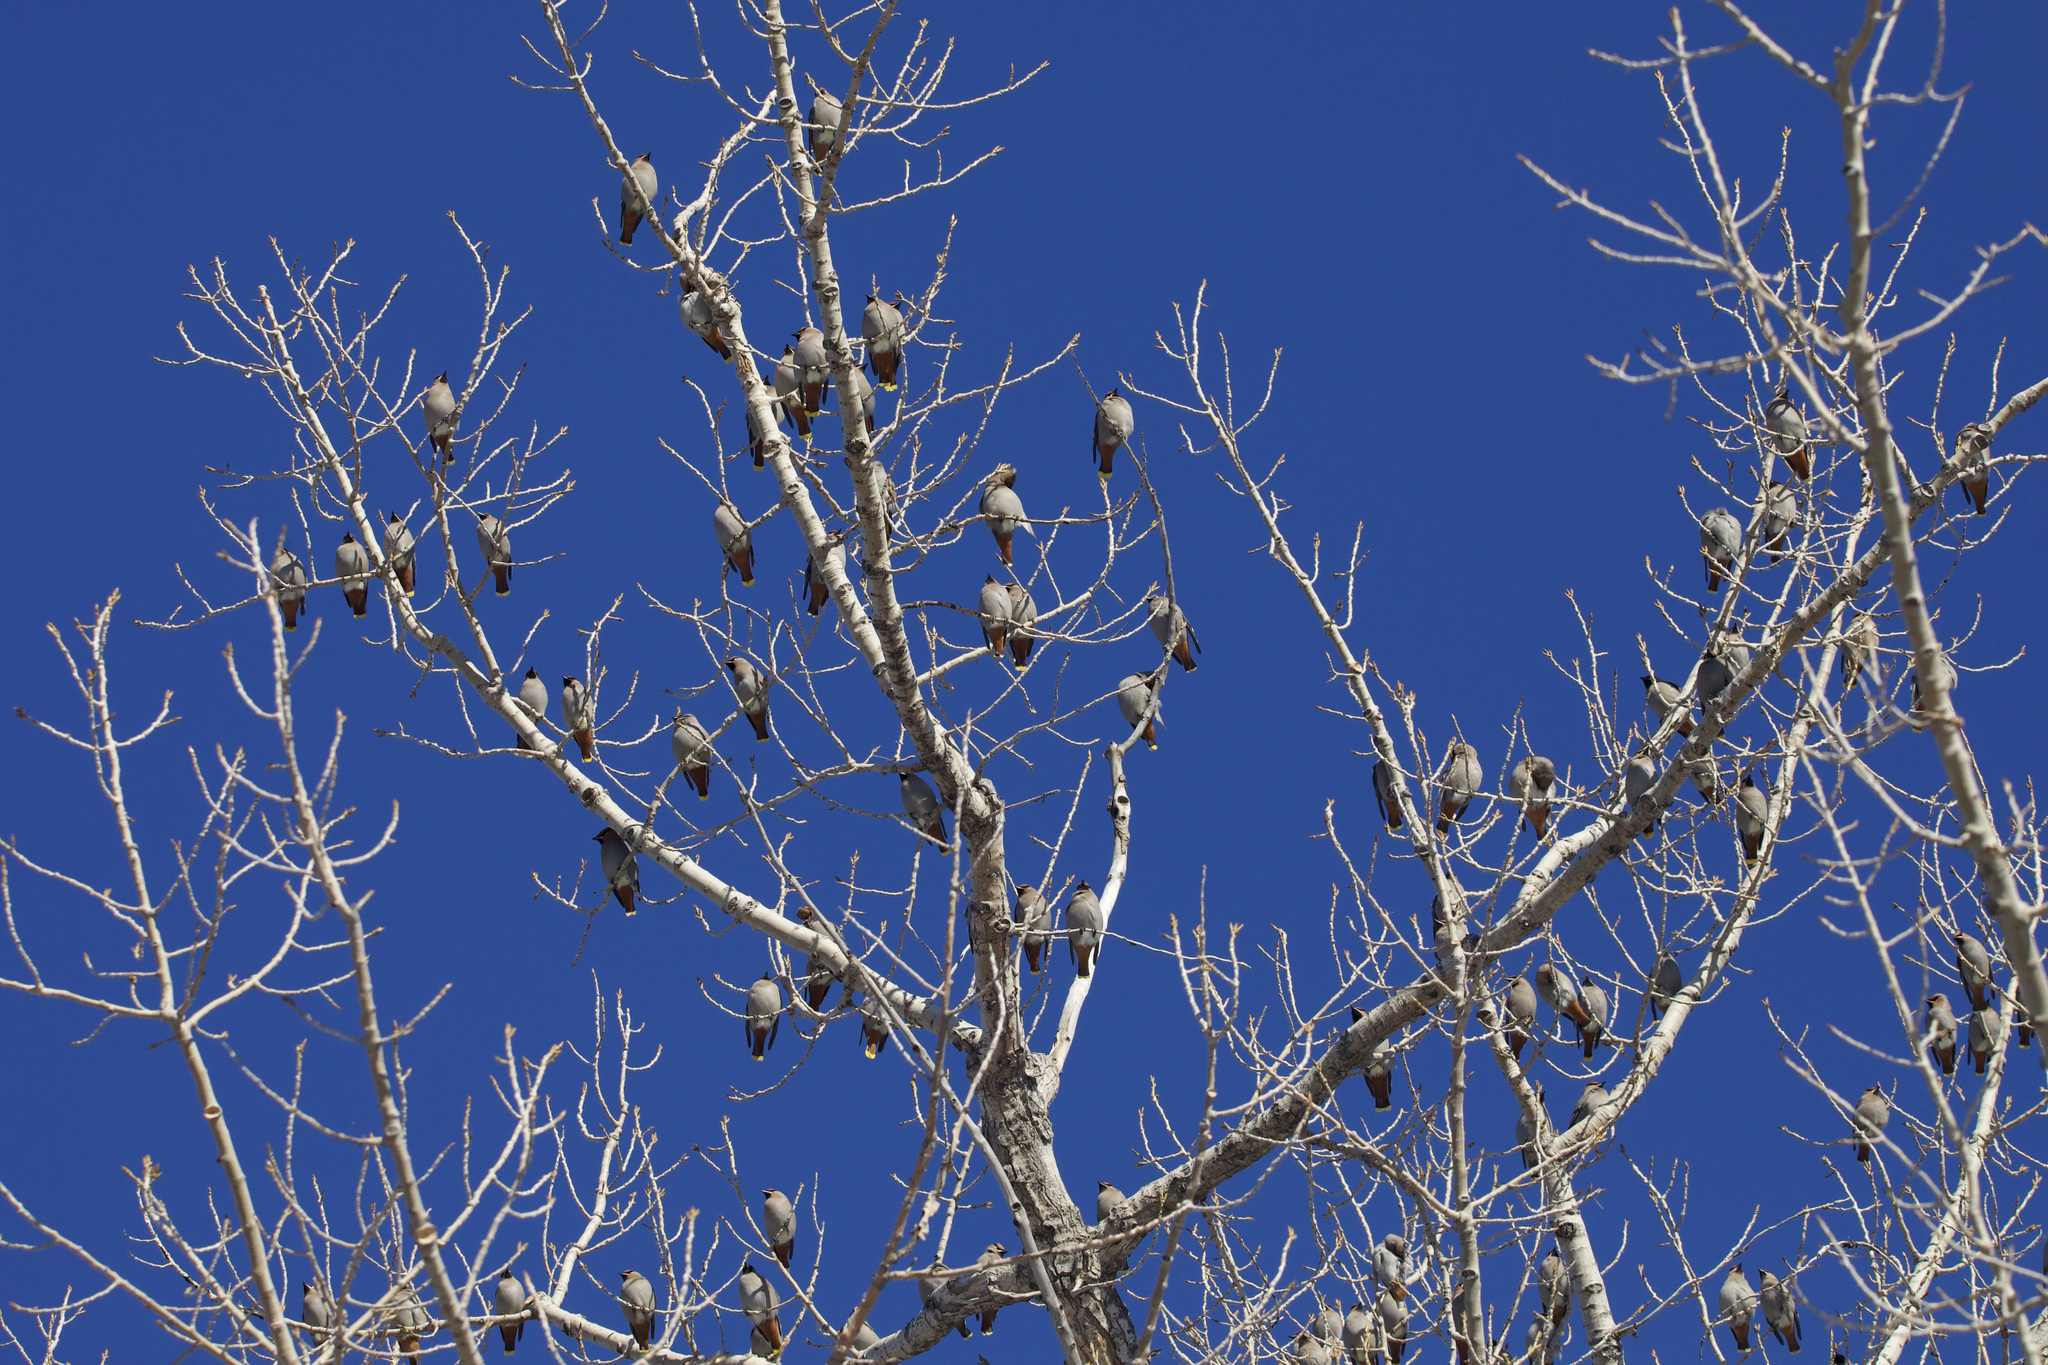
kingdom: Animalia
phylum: Chordata
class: Aves
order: Passeriformes
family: Bombycillidae
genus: Bombycilla
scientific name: Bombycilla garrulus
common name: Bohemian waxwing
